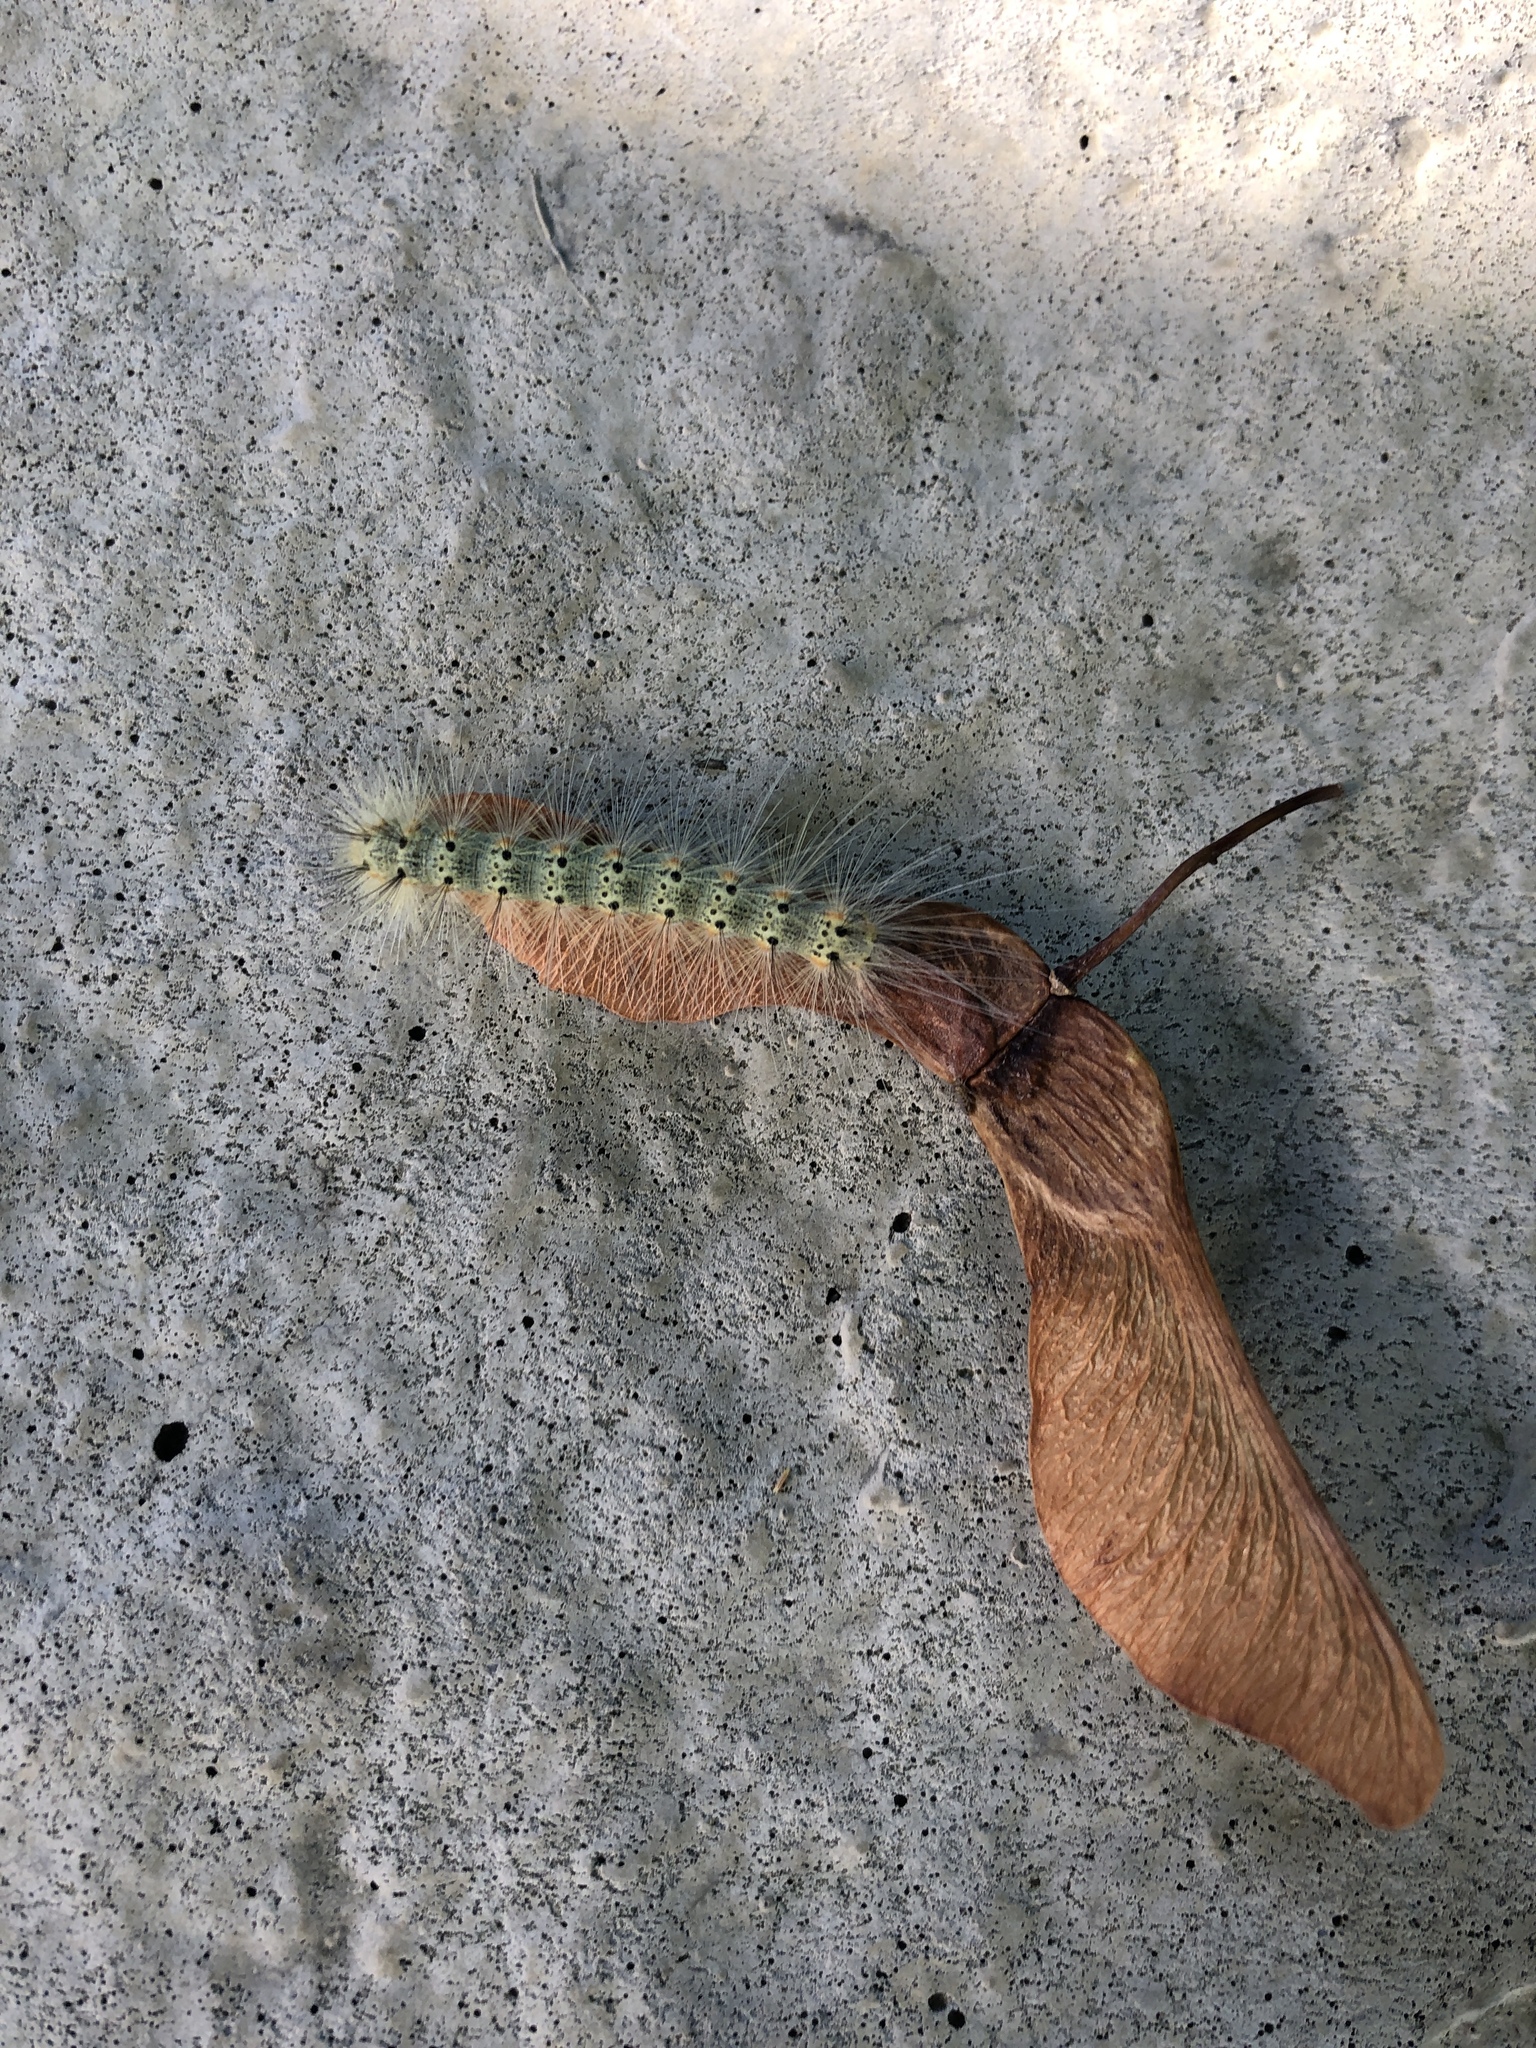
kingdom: Animalia
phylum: Arthropoda
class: Insecta
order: Lepidoptera
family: Erebidae
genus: Hyphantria
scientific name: Hyphantria cunea
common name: American white moth
